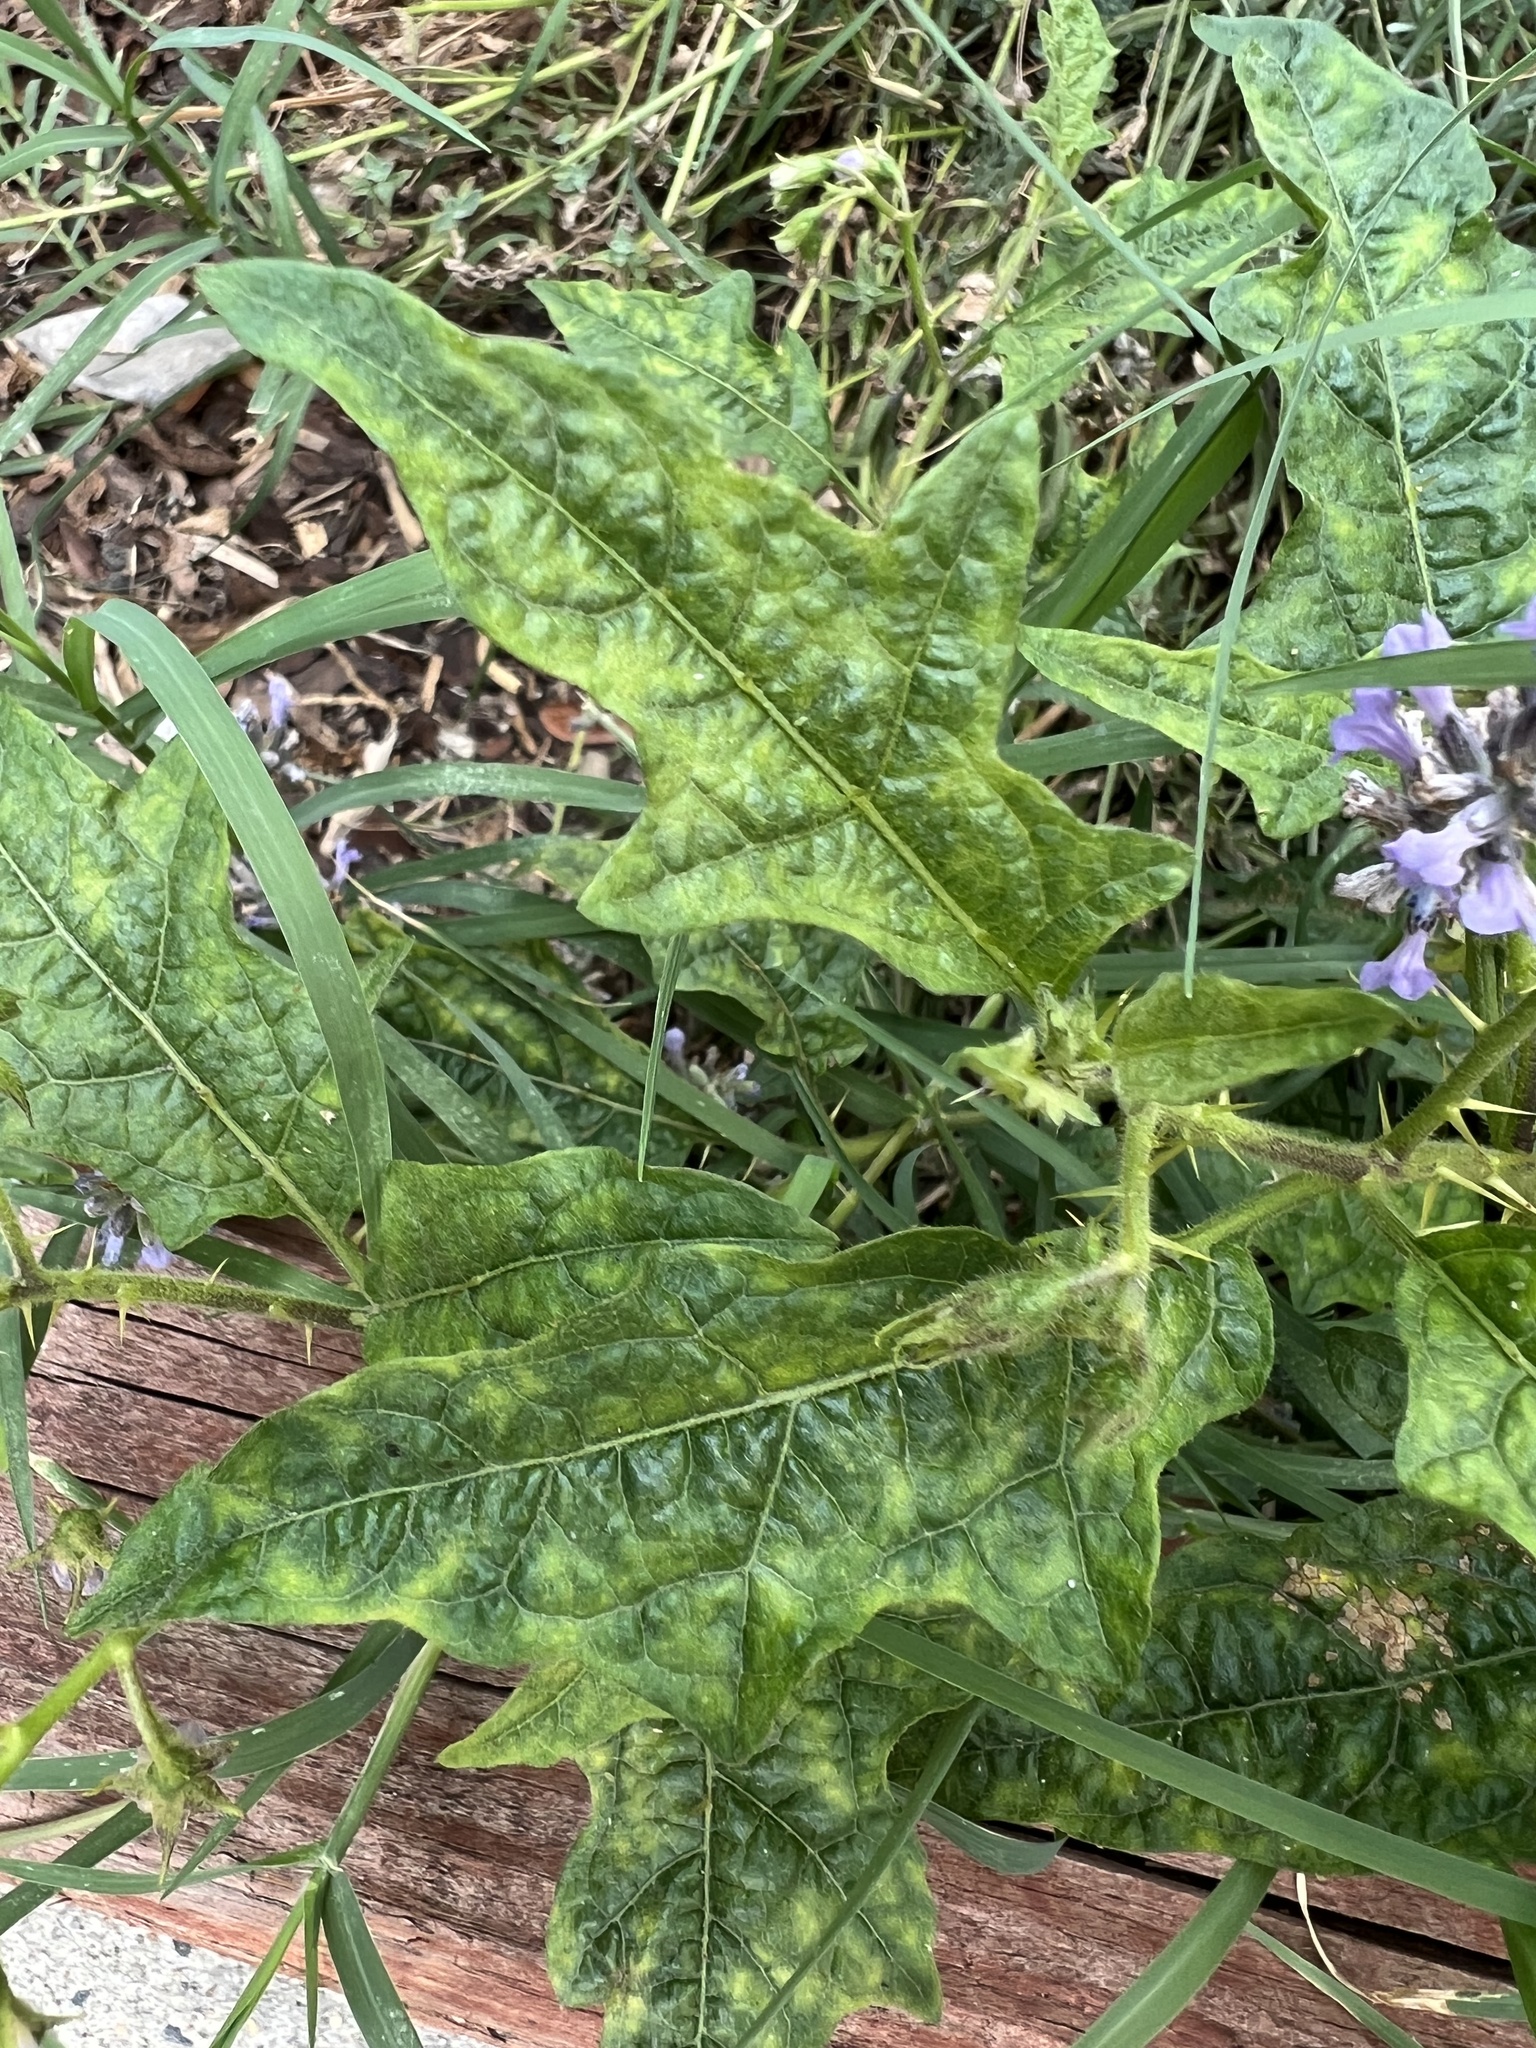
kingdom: Plantae
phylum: Tracheophyta
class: Magnoliopsida
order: Solanales
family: Solanaceae
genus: Solanum
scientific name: Solanum carolinense
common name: Horse-nettle
